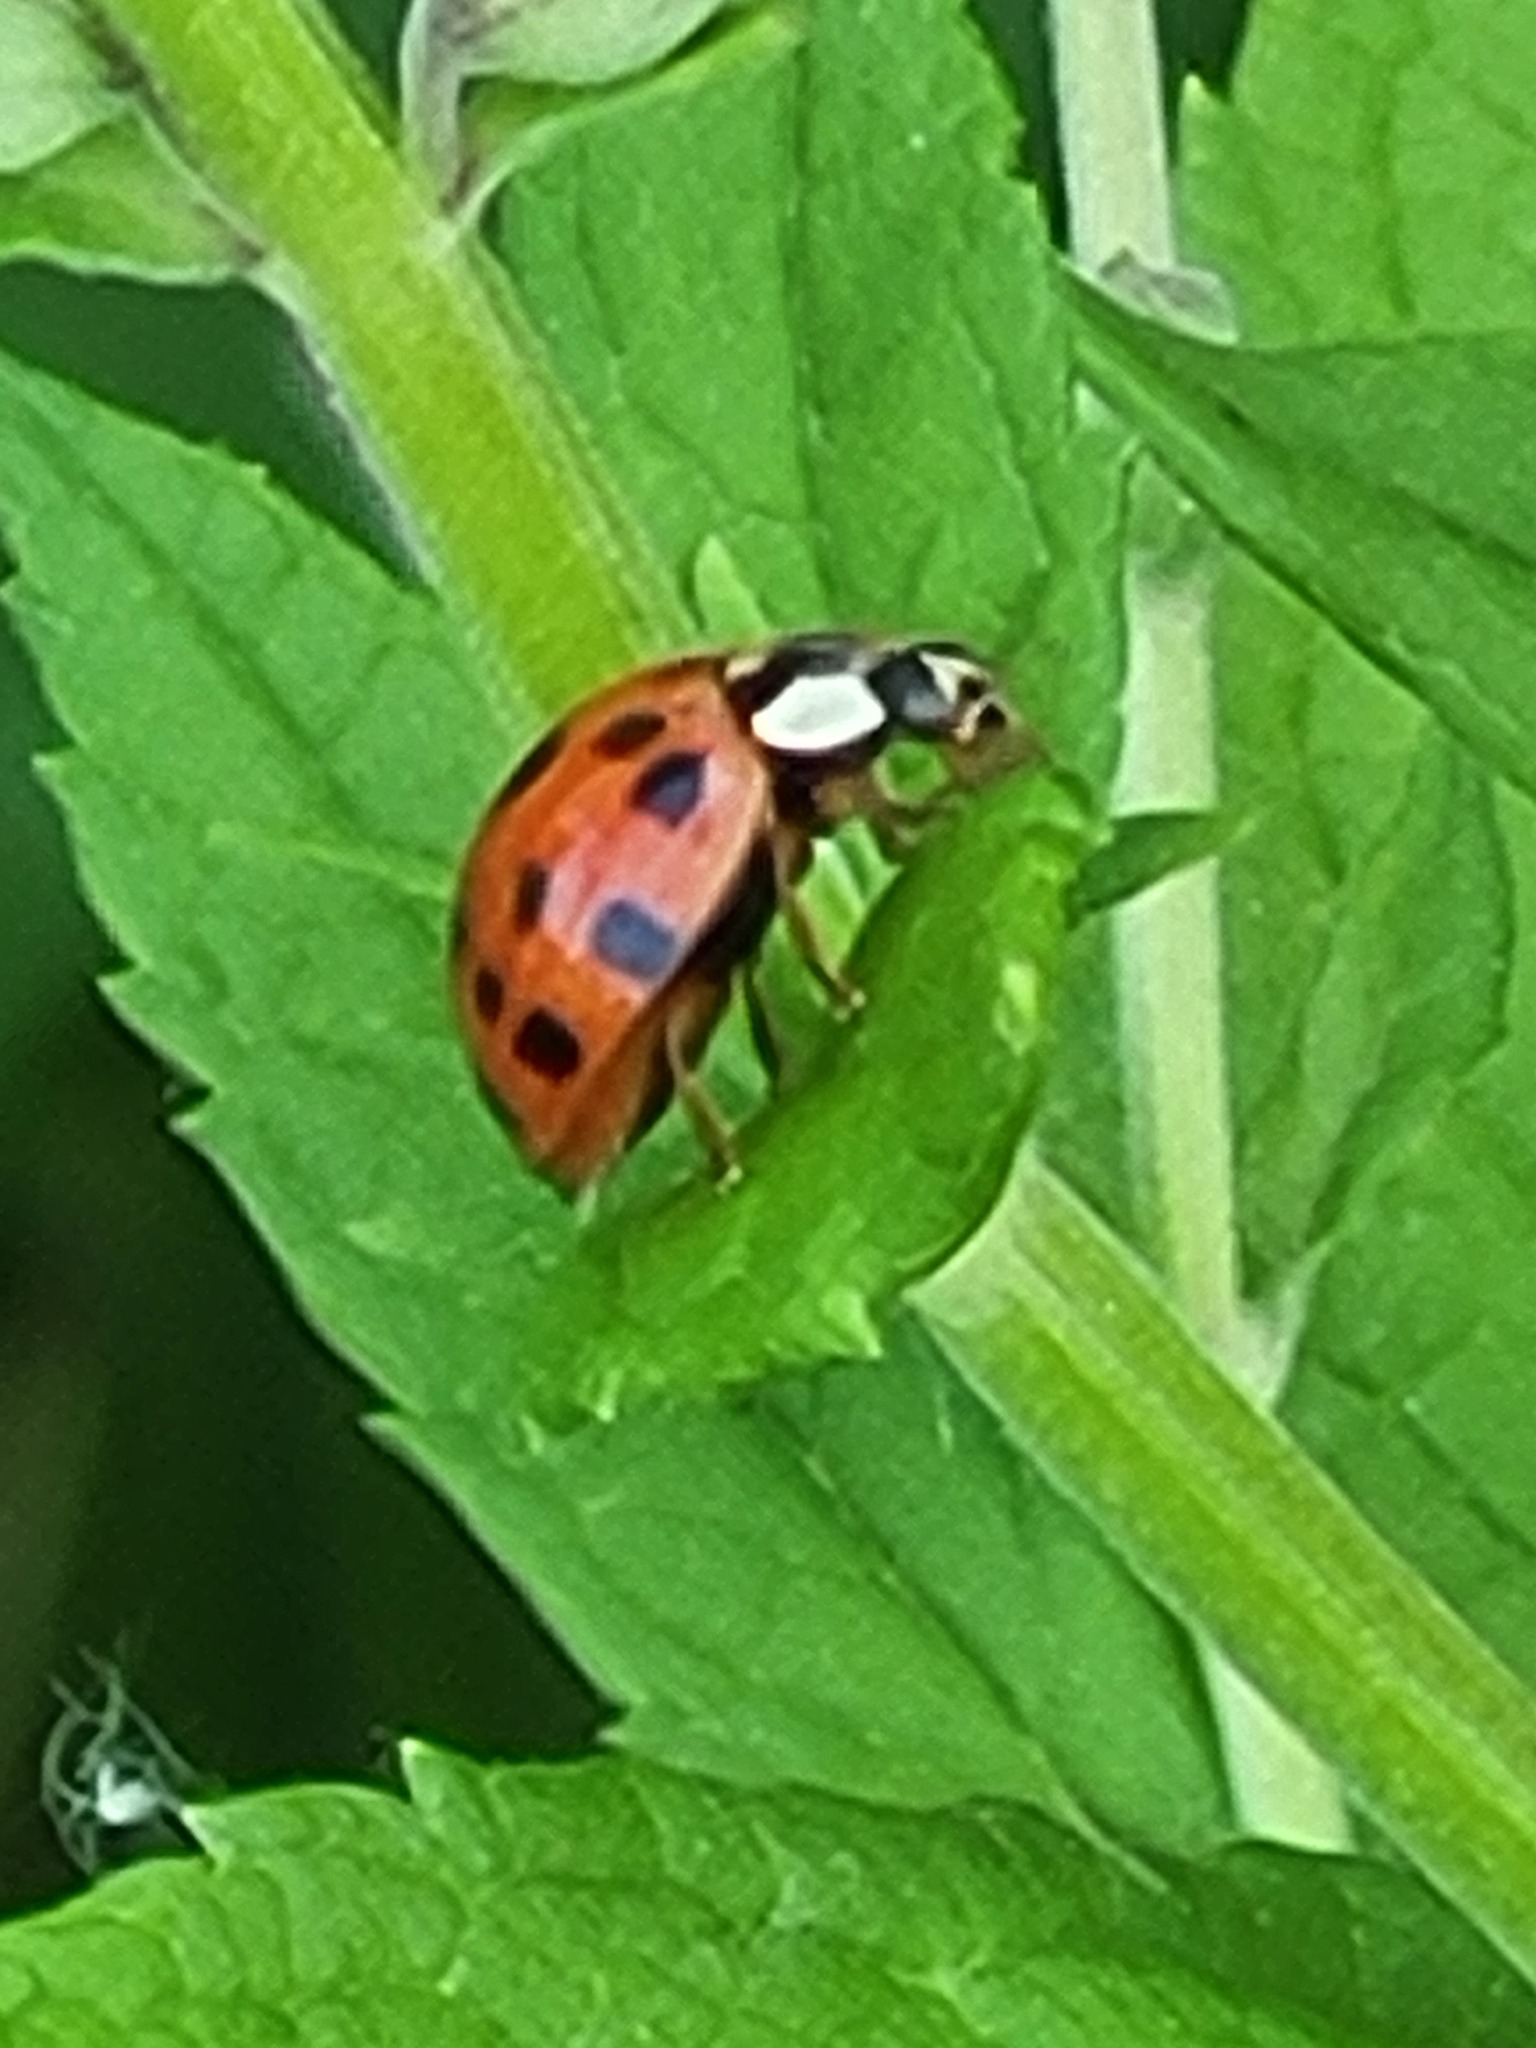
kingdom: Animalia
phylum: Arthropoda
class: Insecta
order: Coleoptera
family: Coccinellidae
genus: Harmonia
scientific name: Harmonia axyridis
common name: Harlequin ladybird
